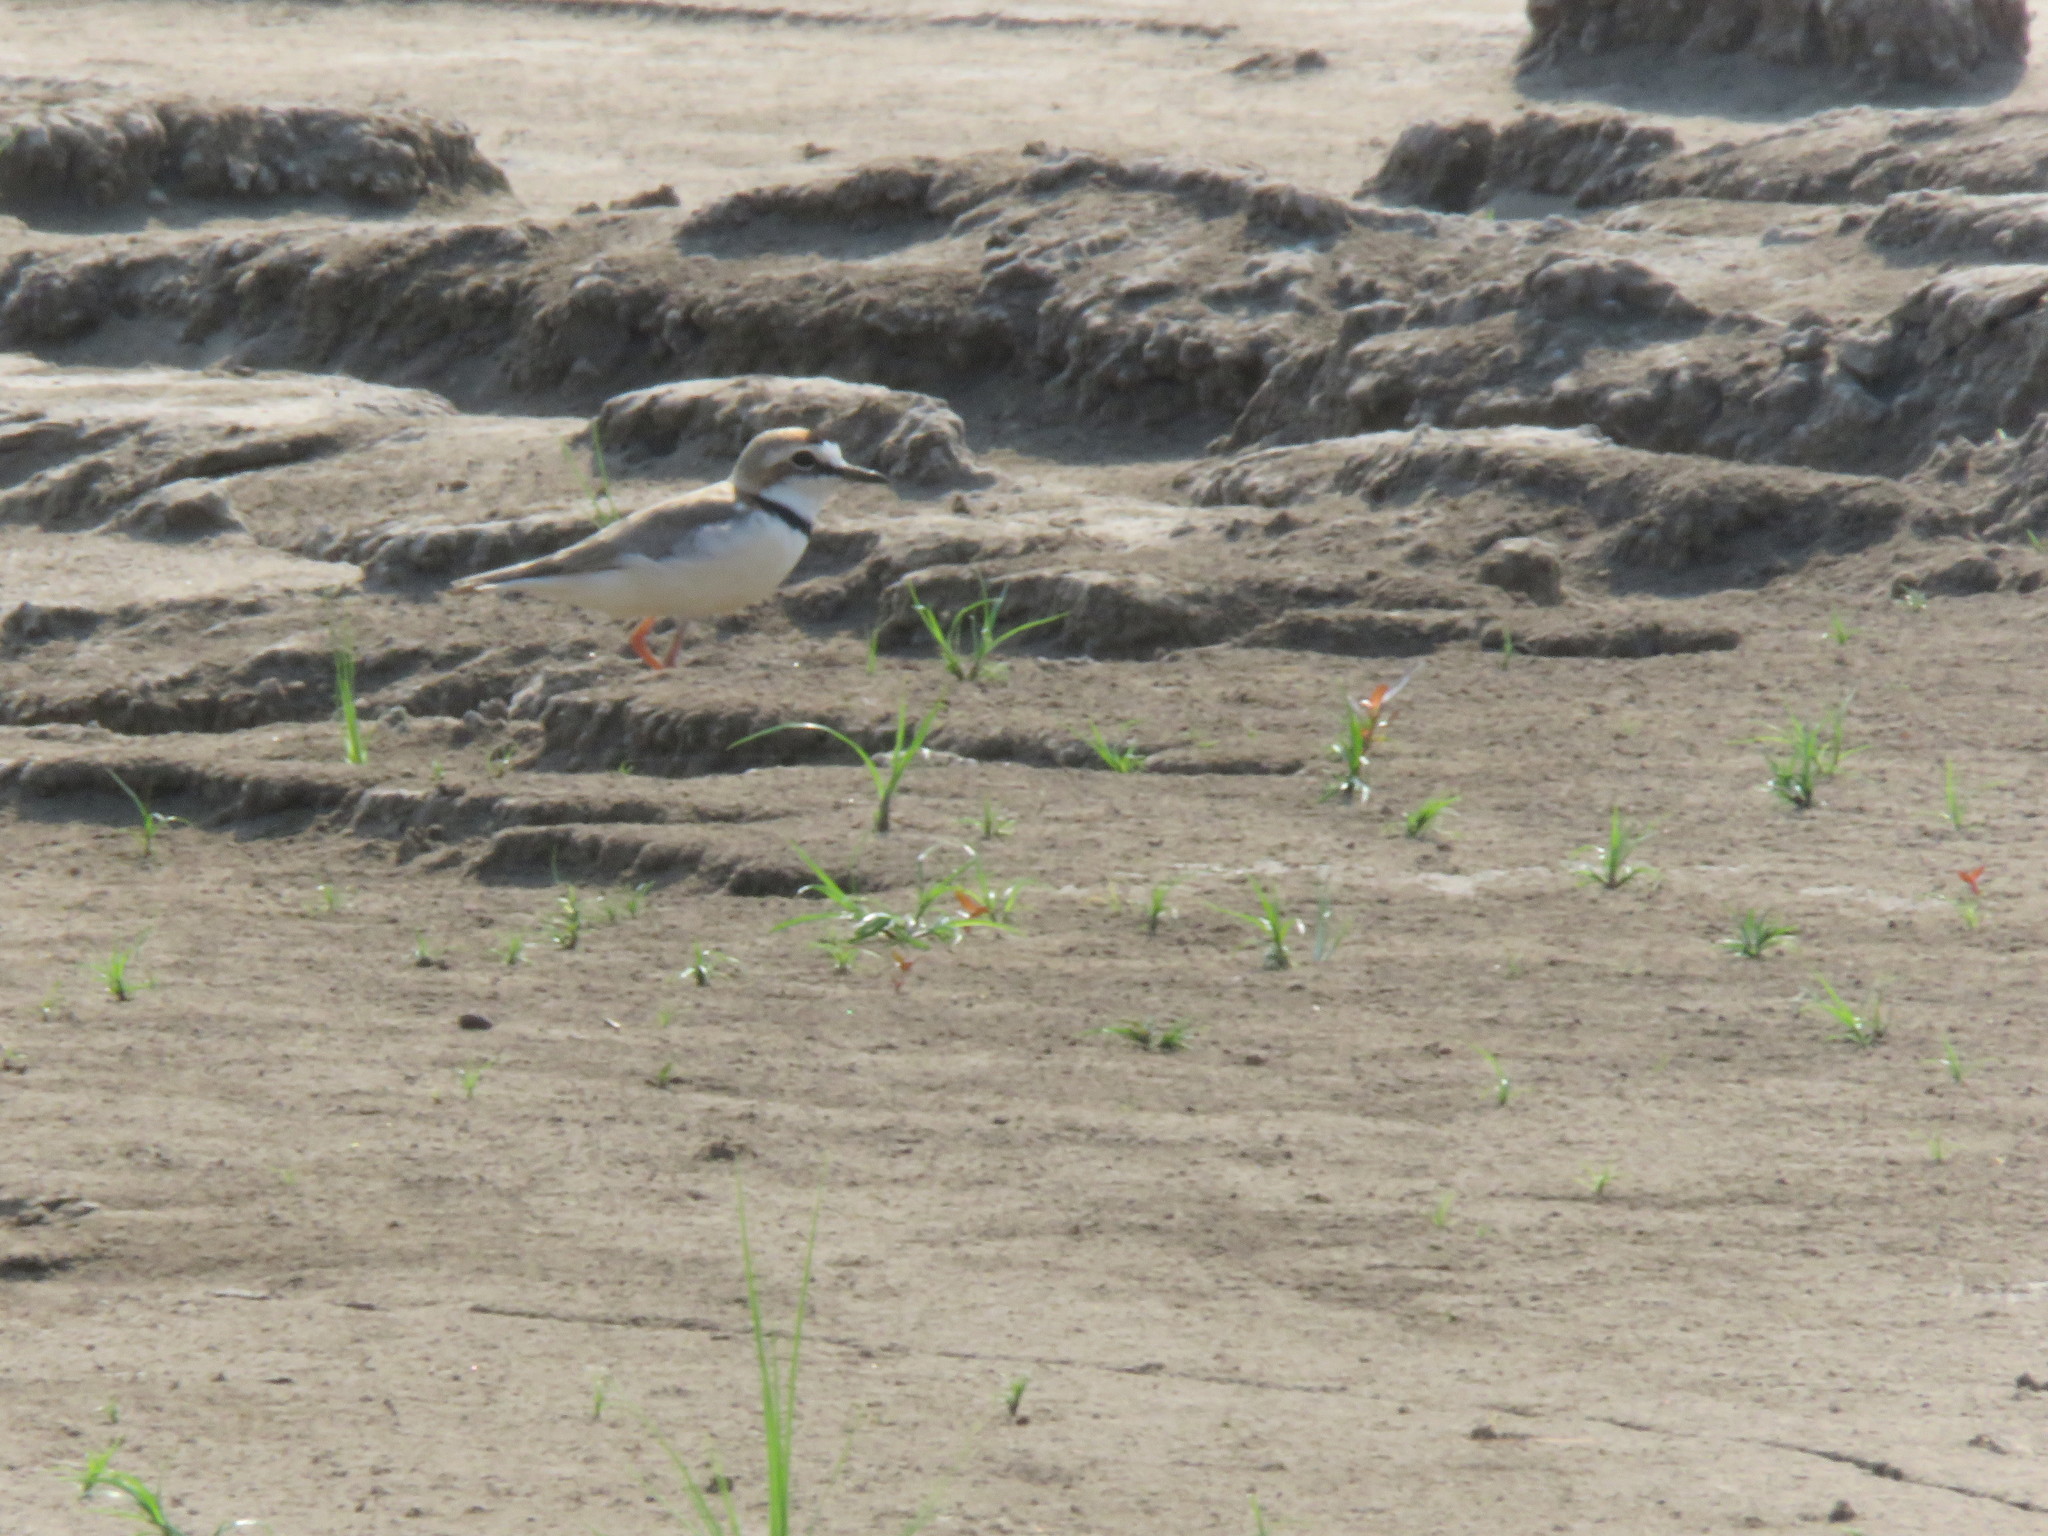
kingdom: Animalia
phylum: Chordata
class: Aves
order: Charadriiformes
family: Charadriidae
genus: Anarhynchus
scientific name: Anarhynchus
